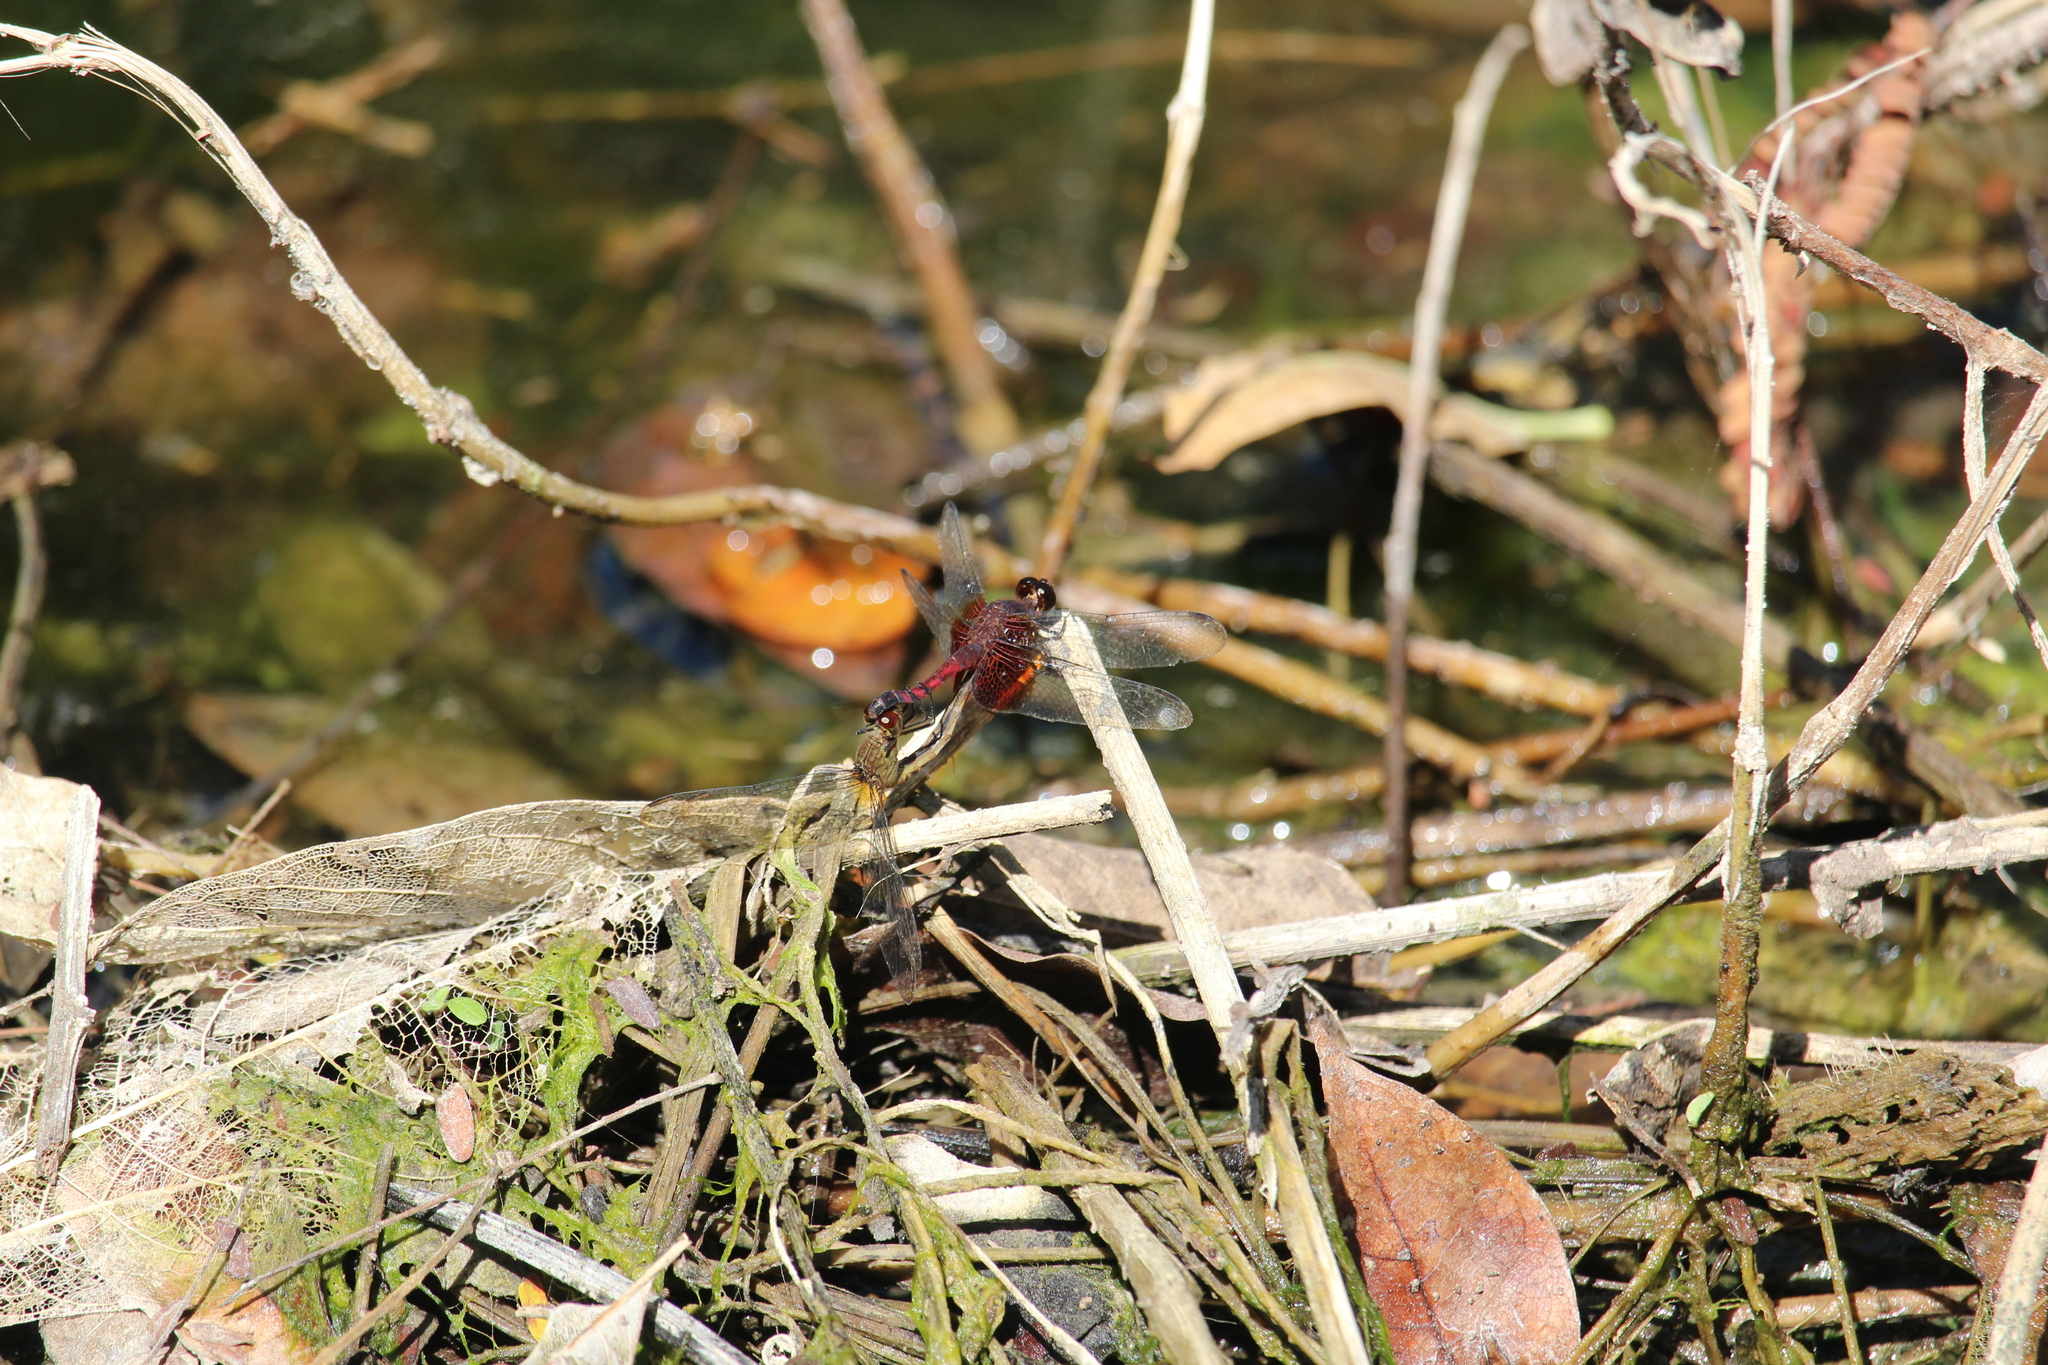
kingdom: Animalia
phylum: Arthropoda
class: Insecta
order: Odonata
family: Libellulidae
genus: Erythrodiplax
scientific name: Erythrodiplax fervida
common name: Red-mantled dragonlet
